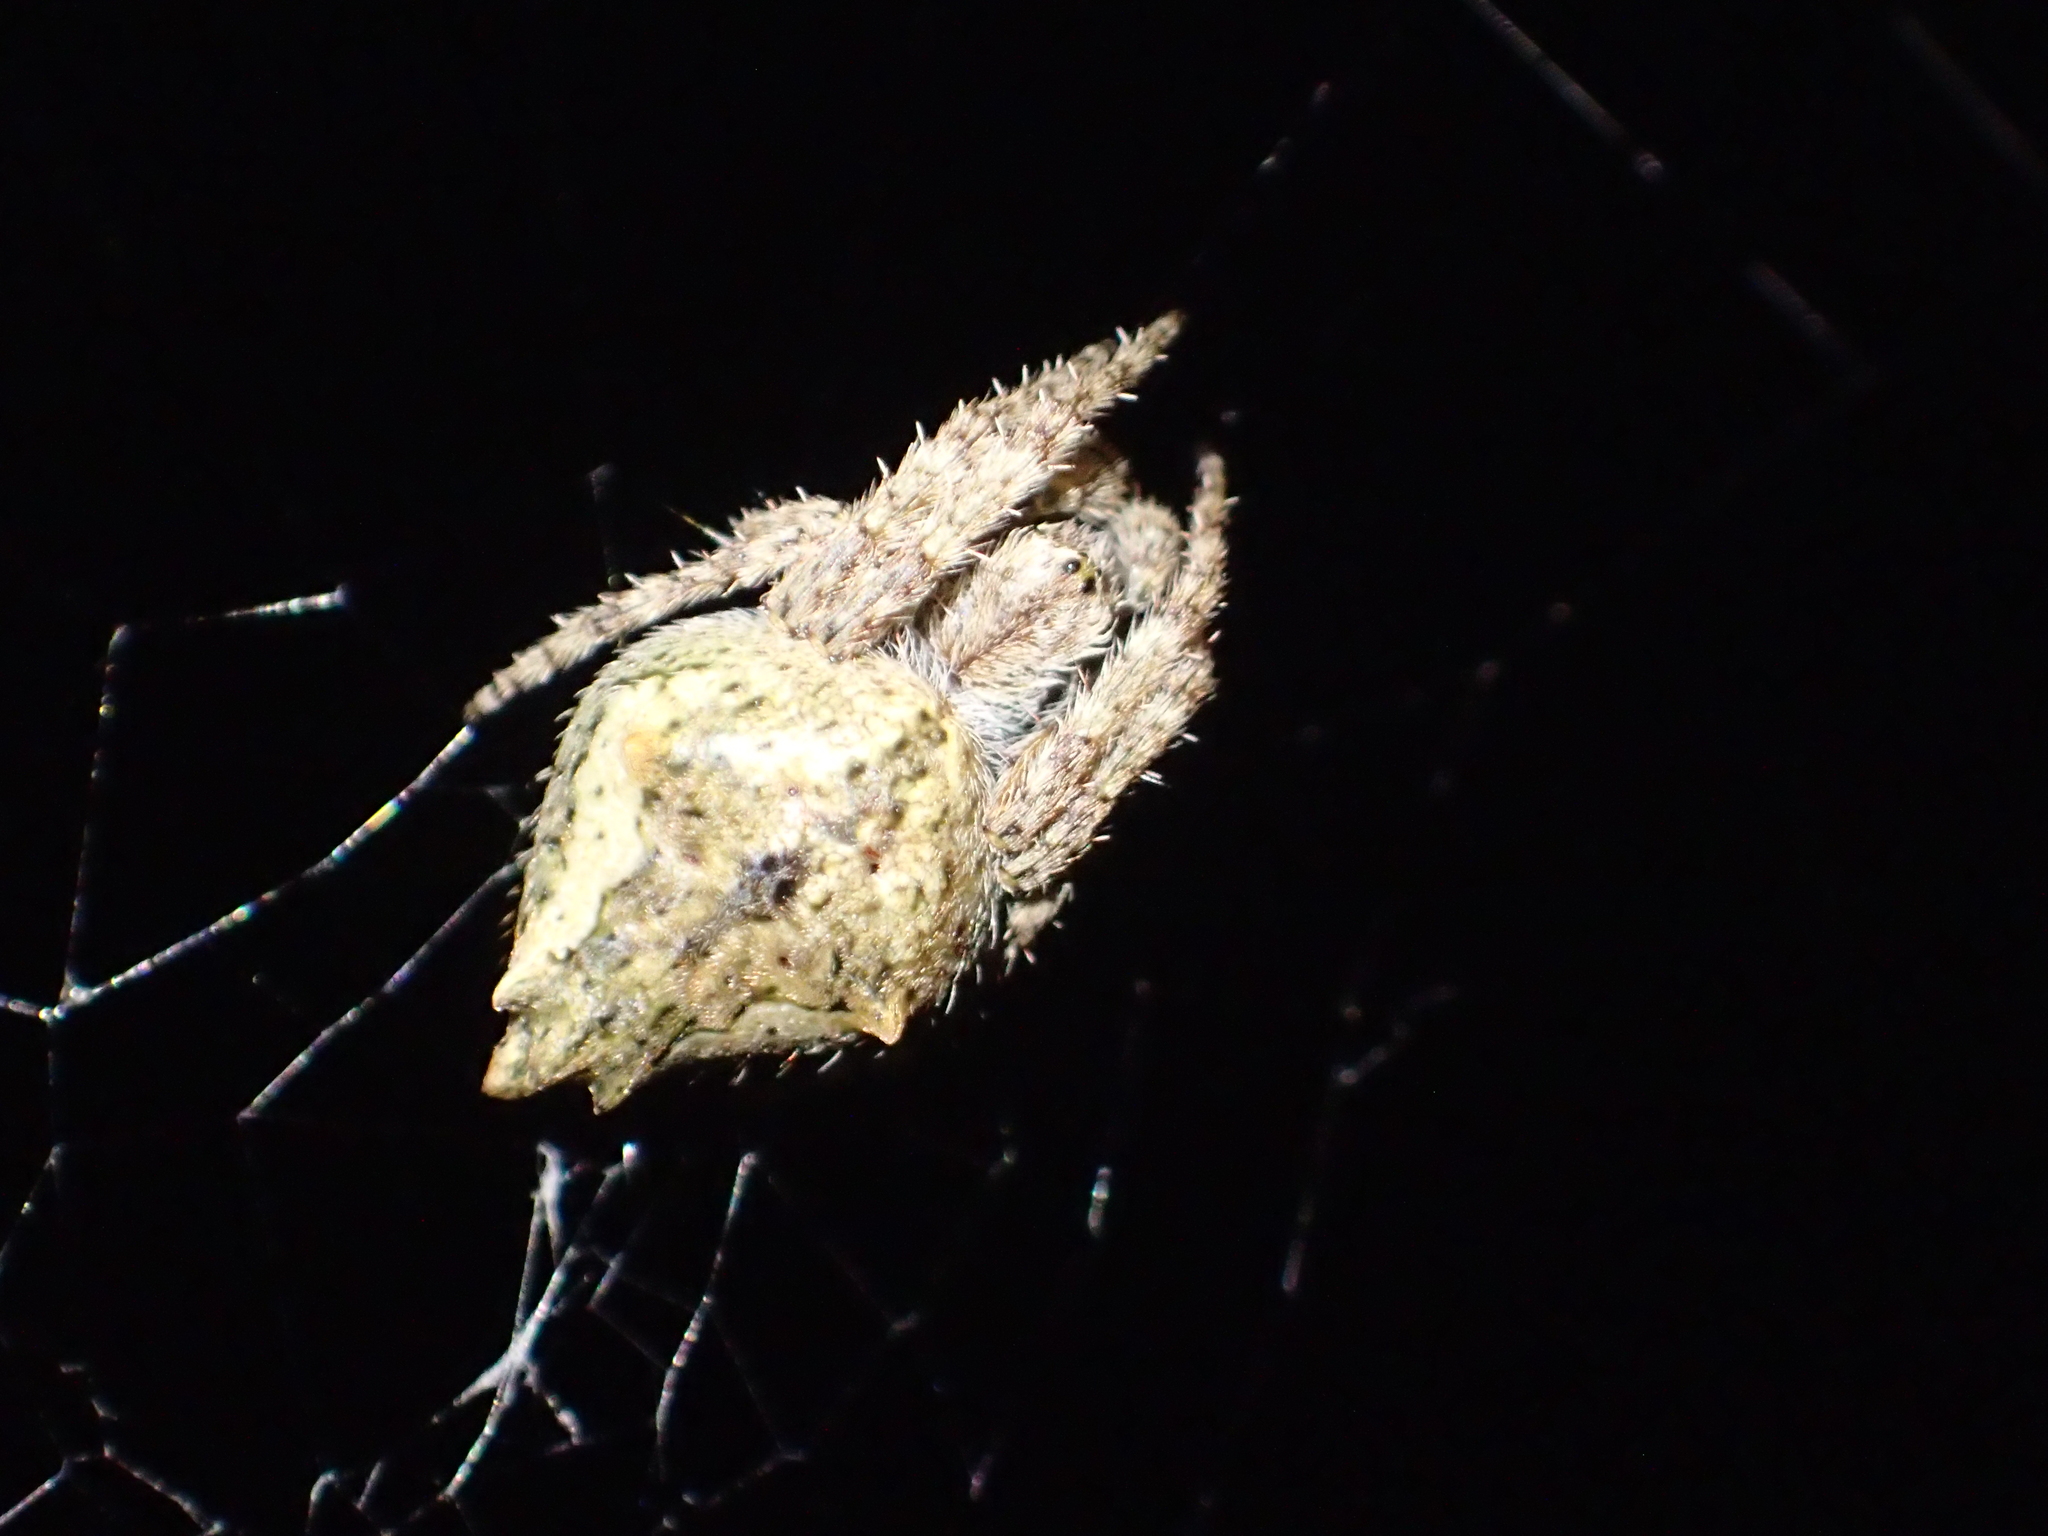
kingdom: Animalia
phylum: Arthropoda
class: Arachnida
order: Araneae
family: Araneidae
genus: Eriophora
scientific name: Eriophora pustulosa
